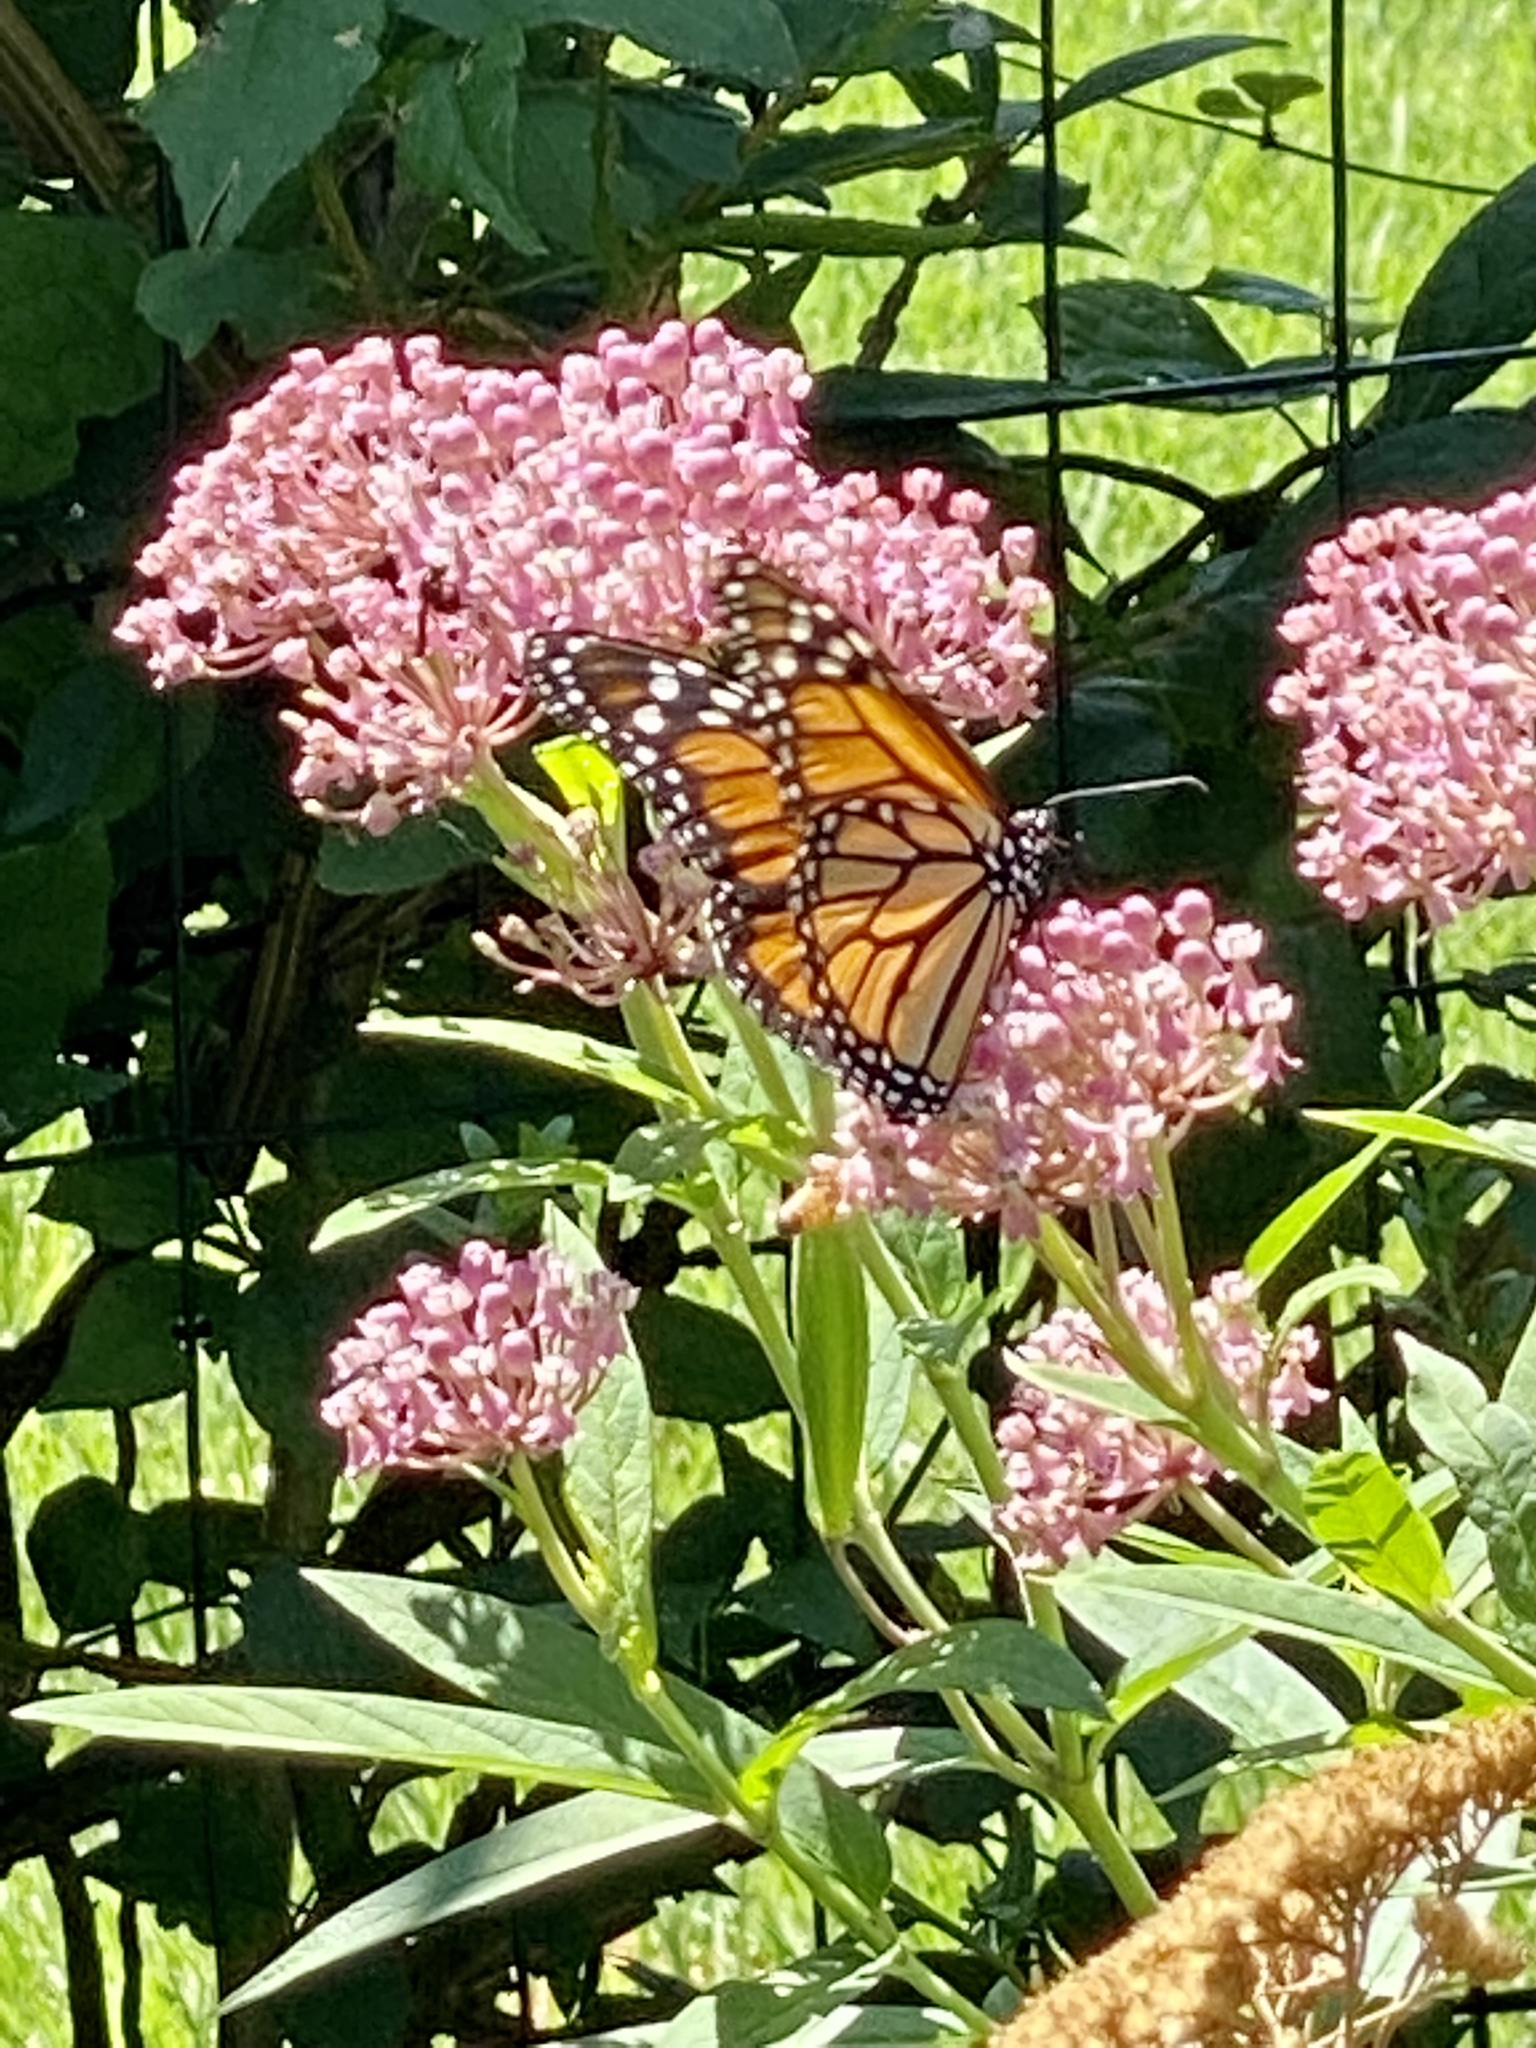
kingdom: Animalia
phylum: Arthropoda
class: Insecta
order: Lepidoptera
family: Nymphalidae
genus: Danaus
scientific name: Danaus plexippus
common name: Monarch
